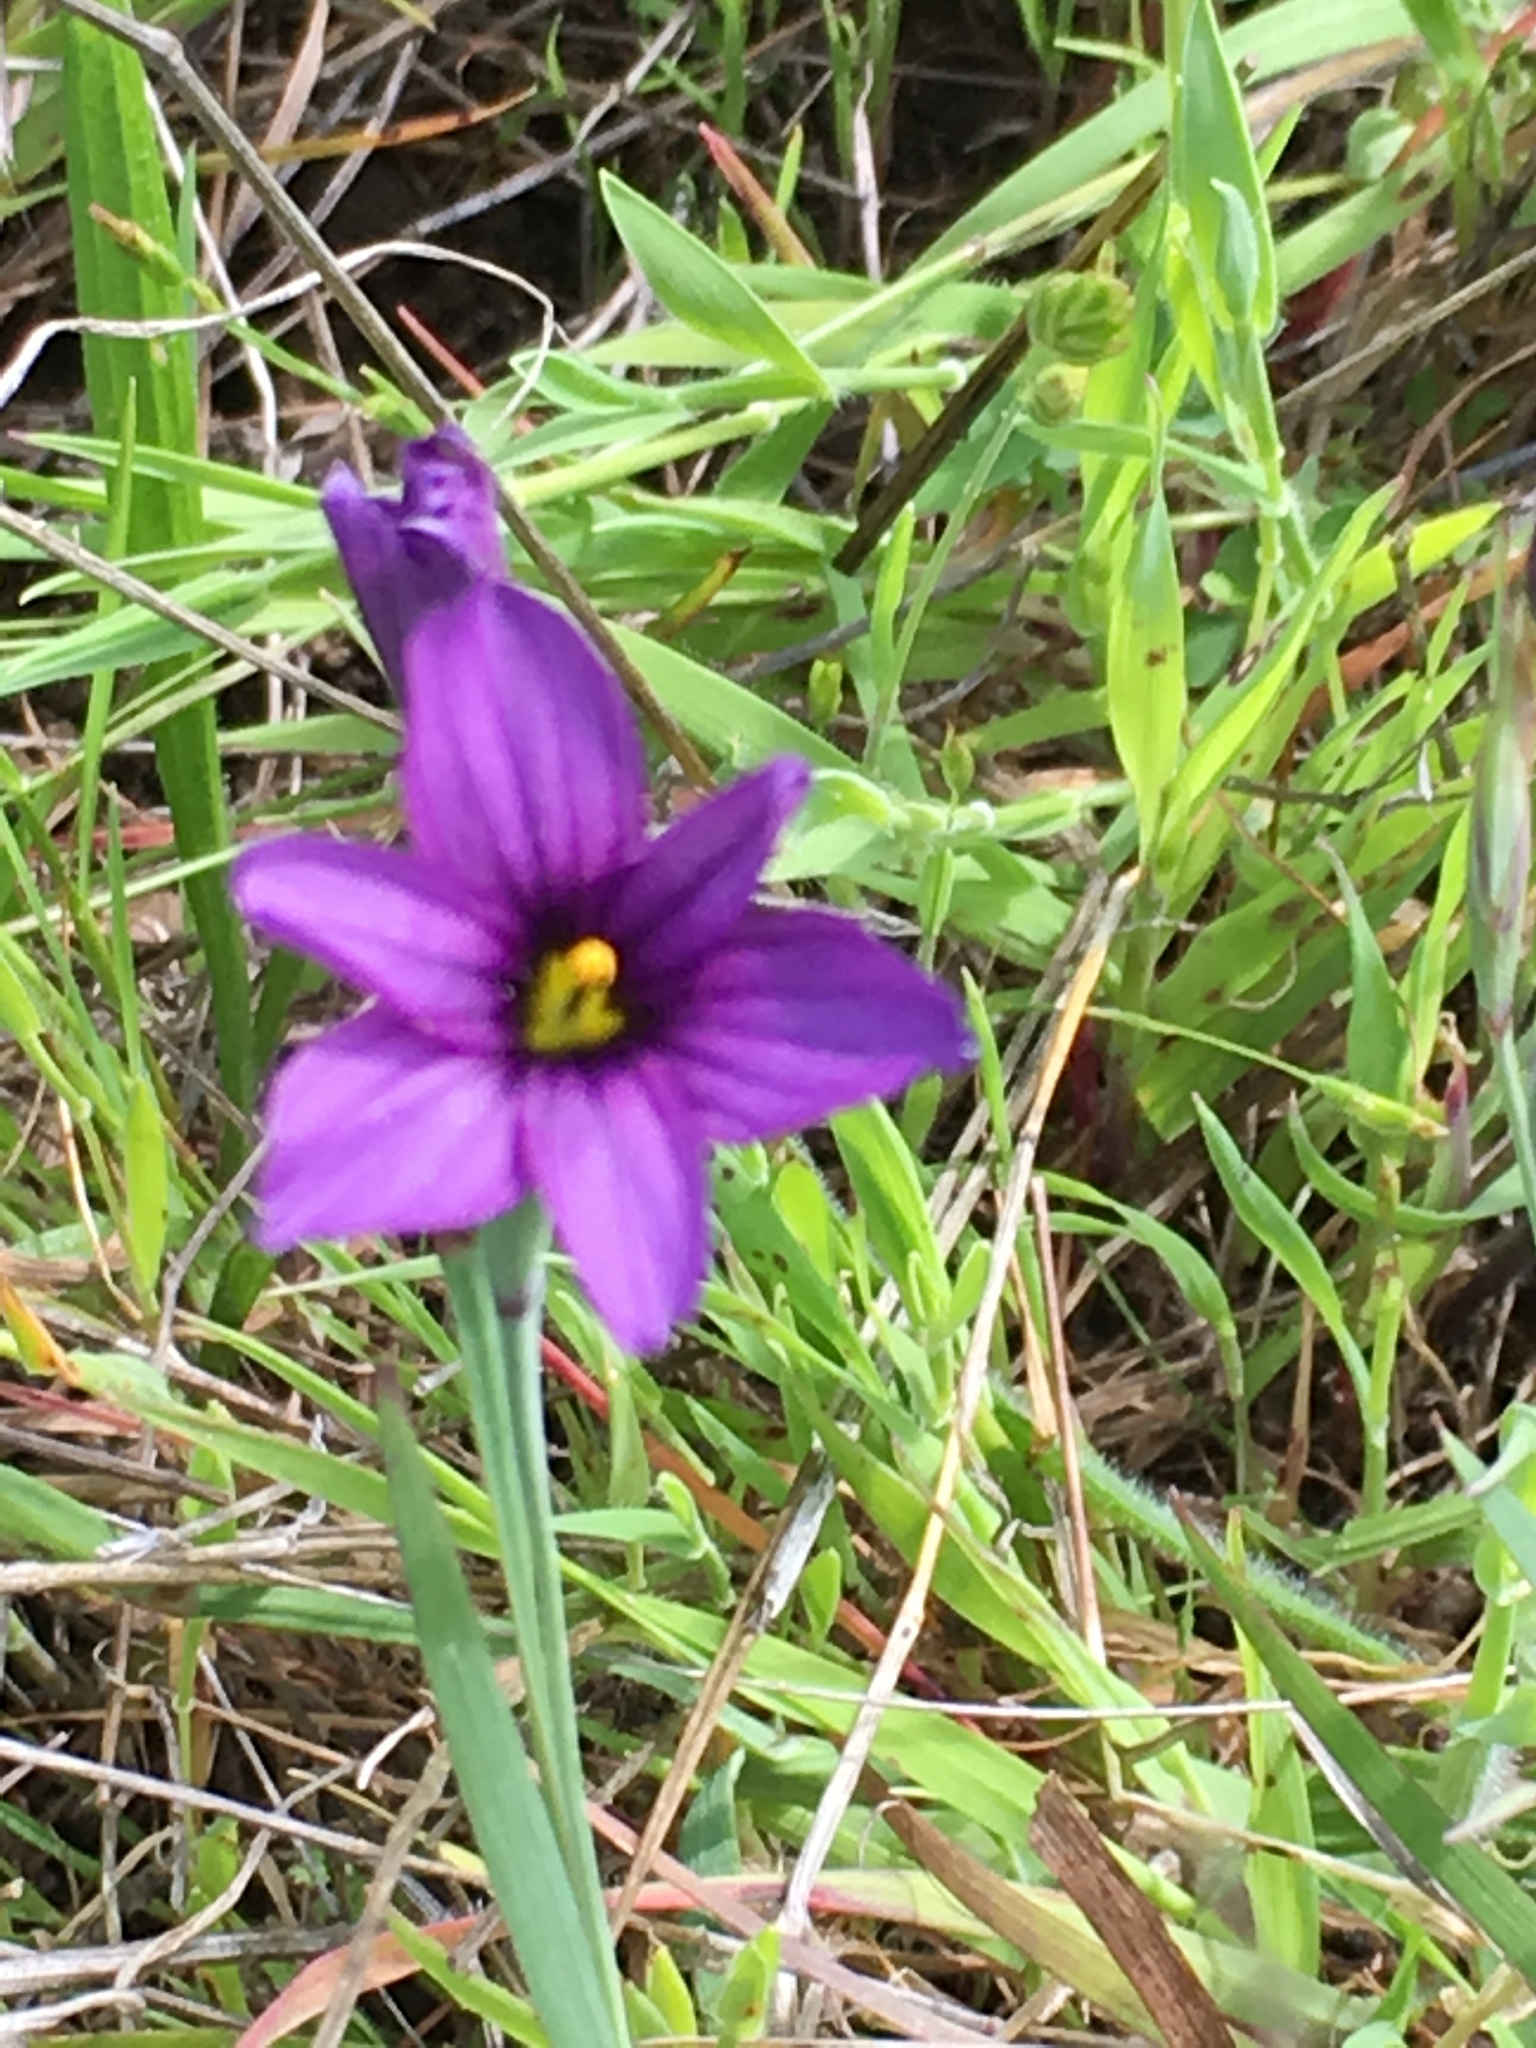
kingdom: Plantae
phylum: Tracheophyta
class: Liliopsida
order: Asparagales
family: Iridaceae
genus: Sisyrinchium
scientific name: Sisyrinchium bellum
